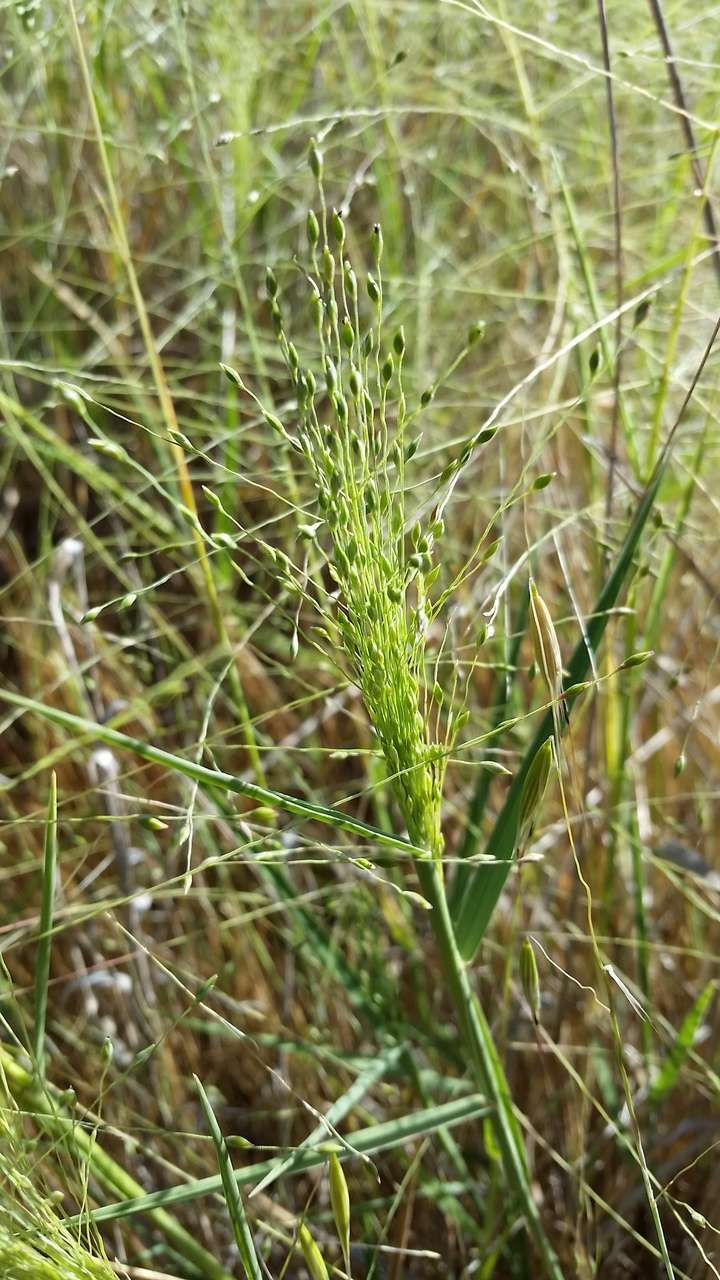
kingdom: Plantae
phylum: Tracheophyta
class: Liliopsida
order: Poales
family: Poaceae
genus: Walwhalleya
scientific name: Walwhalleya proluta
